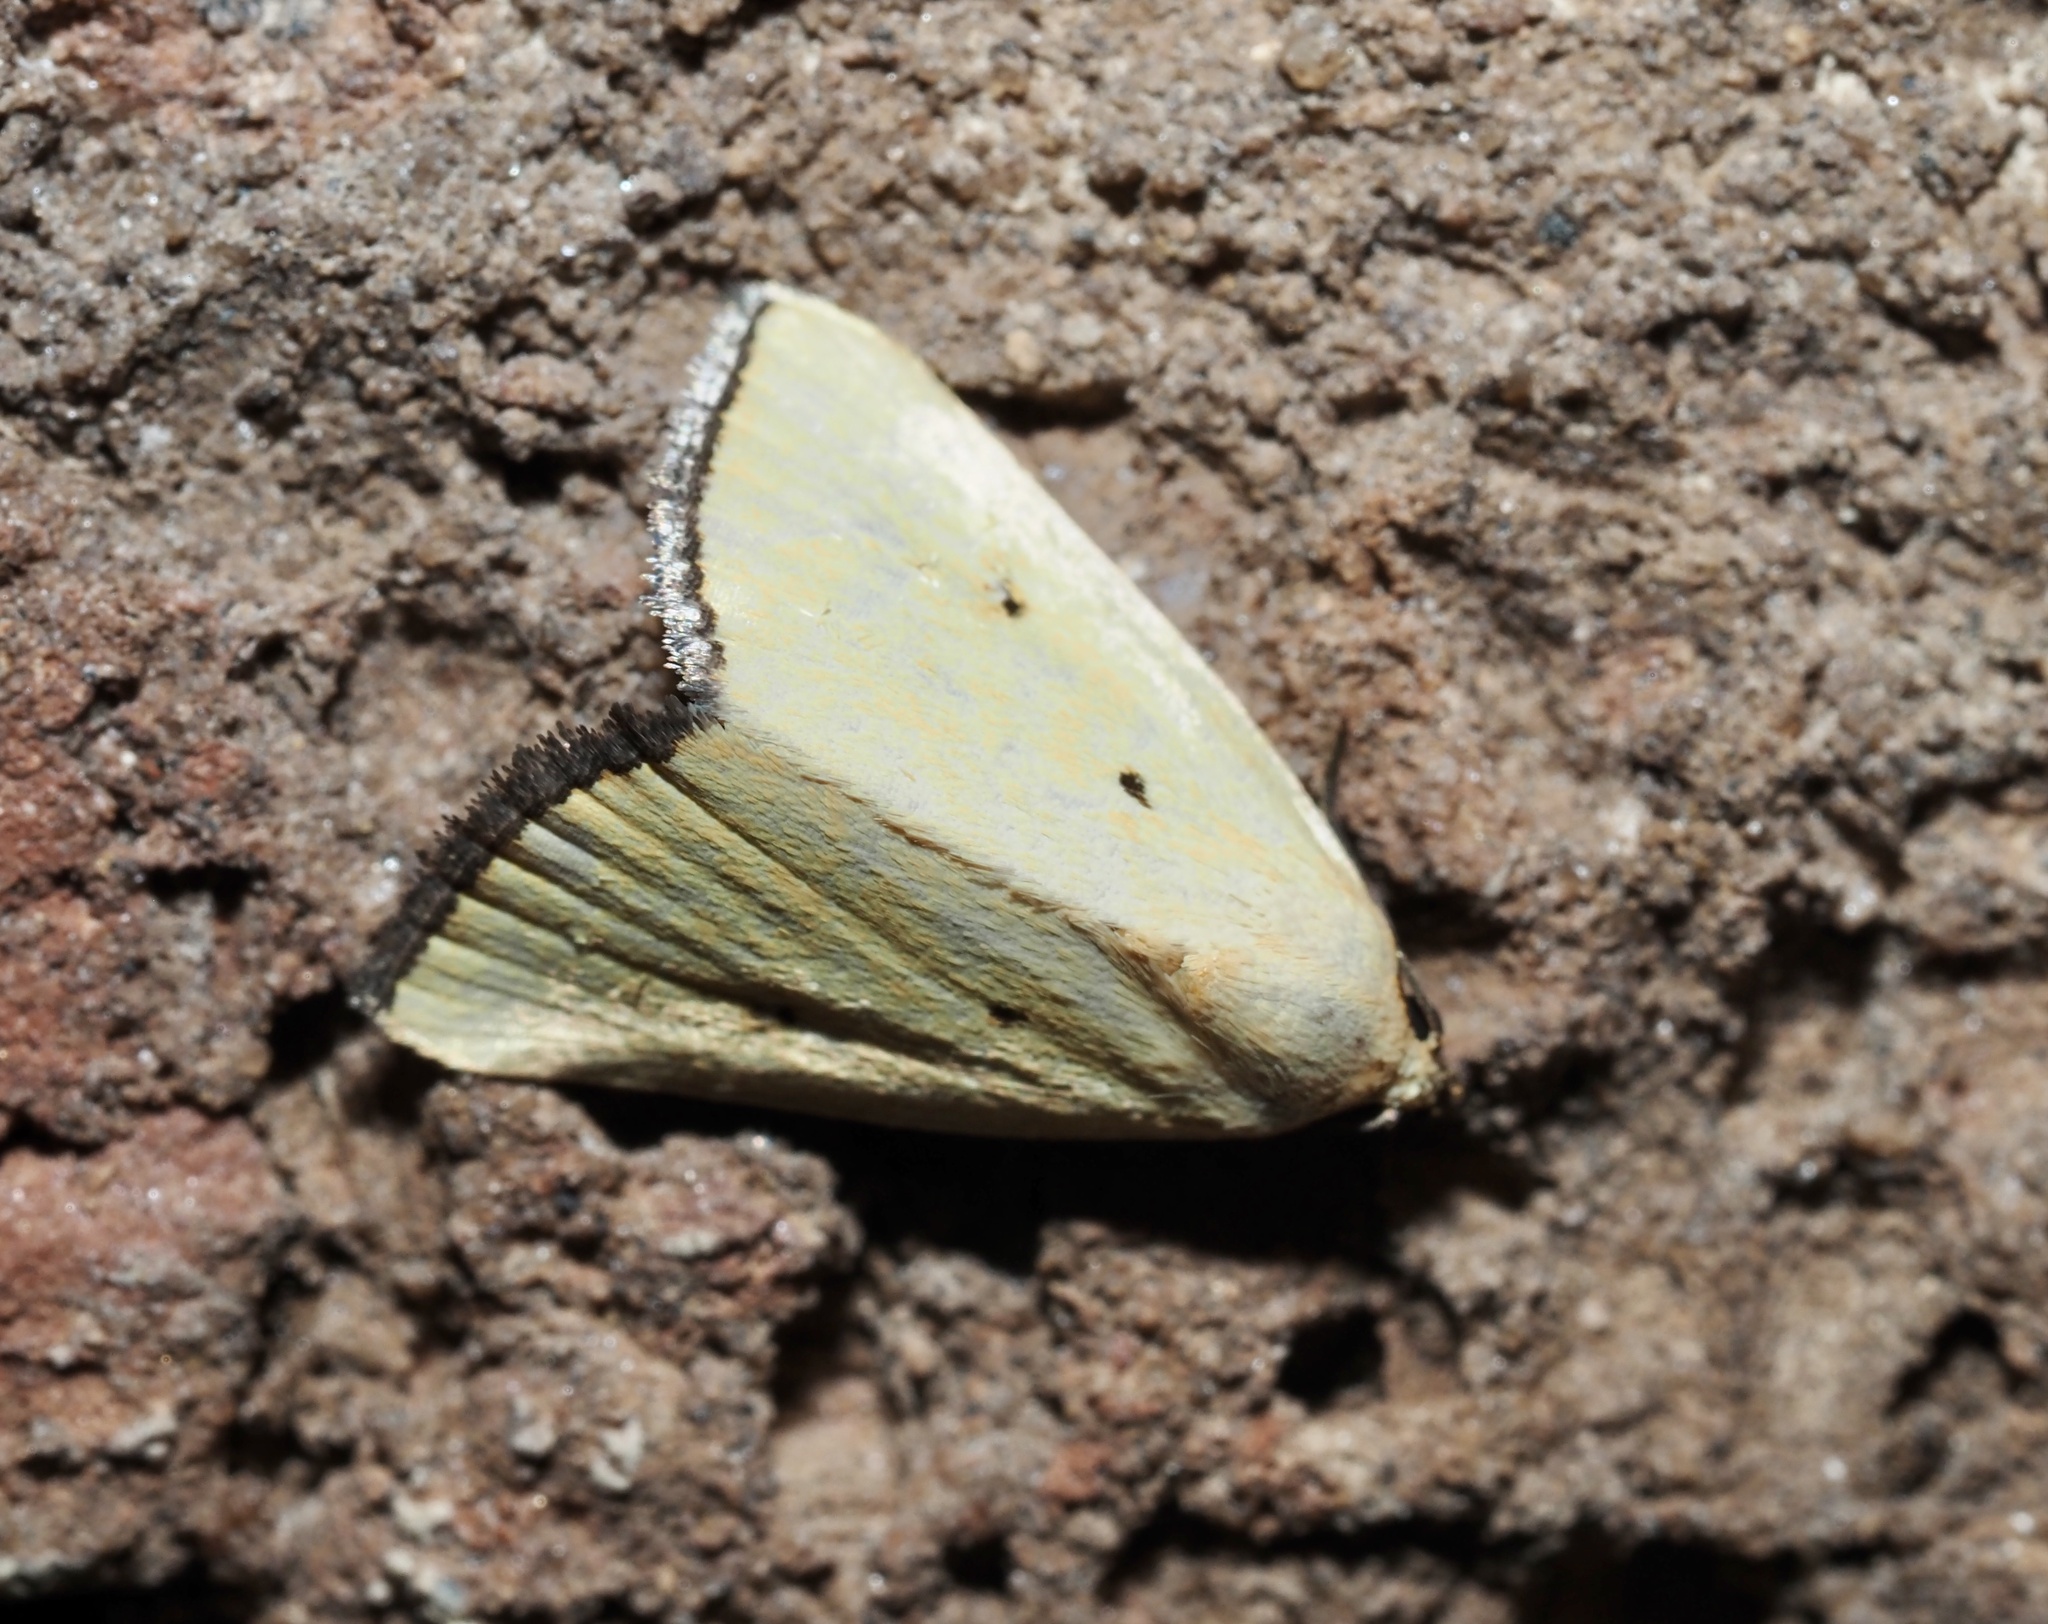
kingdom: Animalia
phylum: Arthropoda
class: Insecta
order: Lepidoptera
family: Noctuidae
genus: Marimatha
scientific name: Marimatha nigrofimbria
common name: Black-bordered lemon moth
